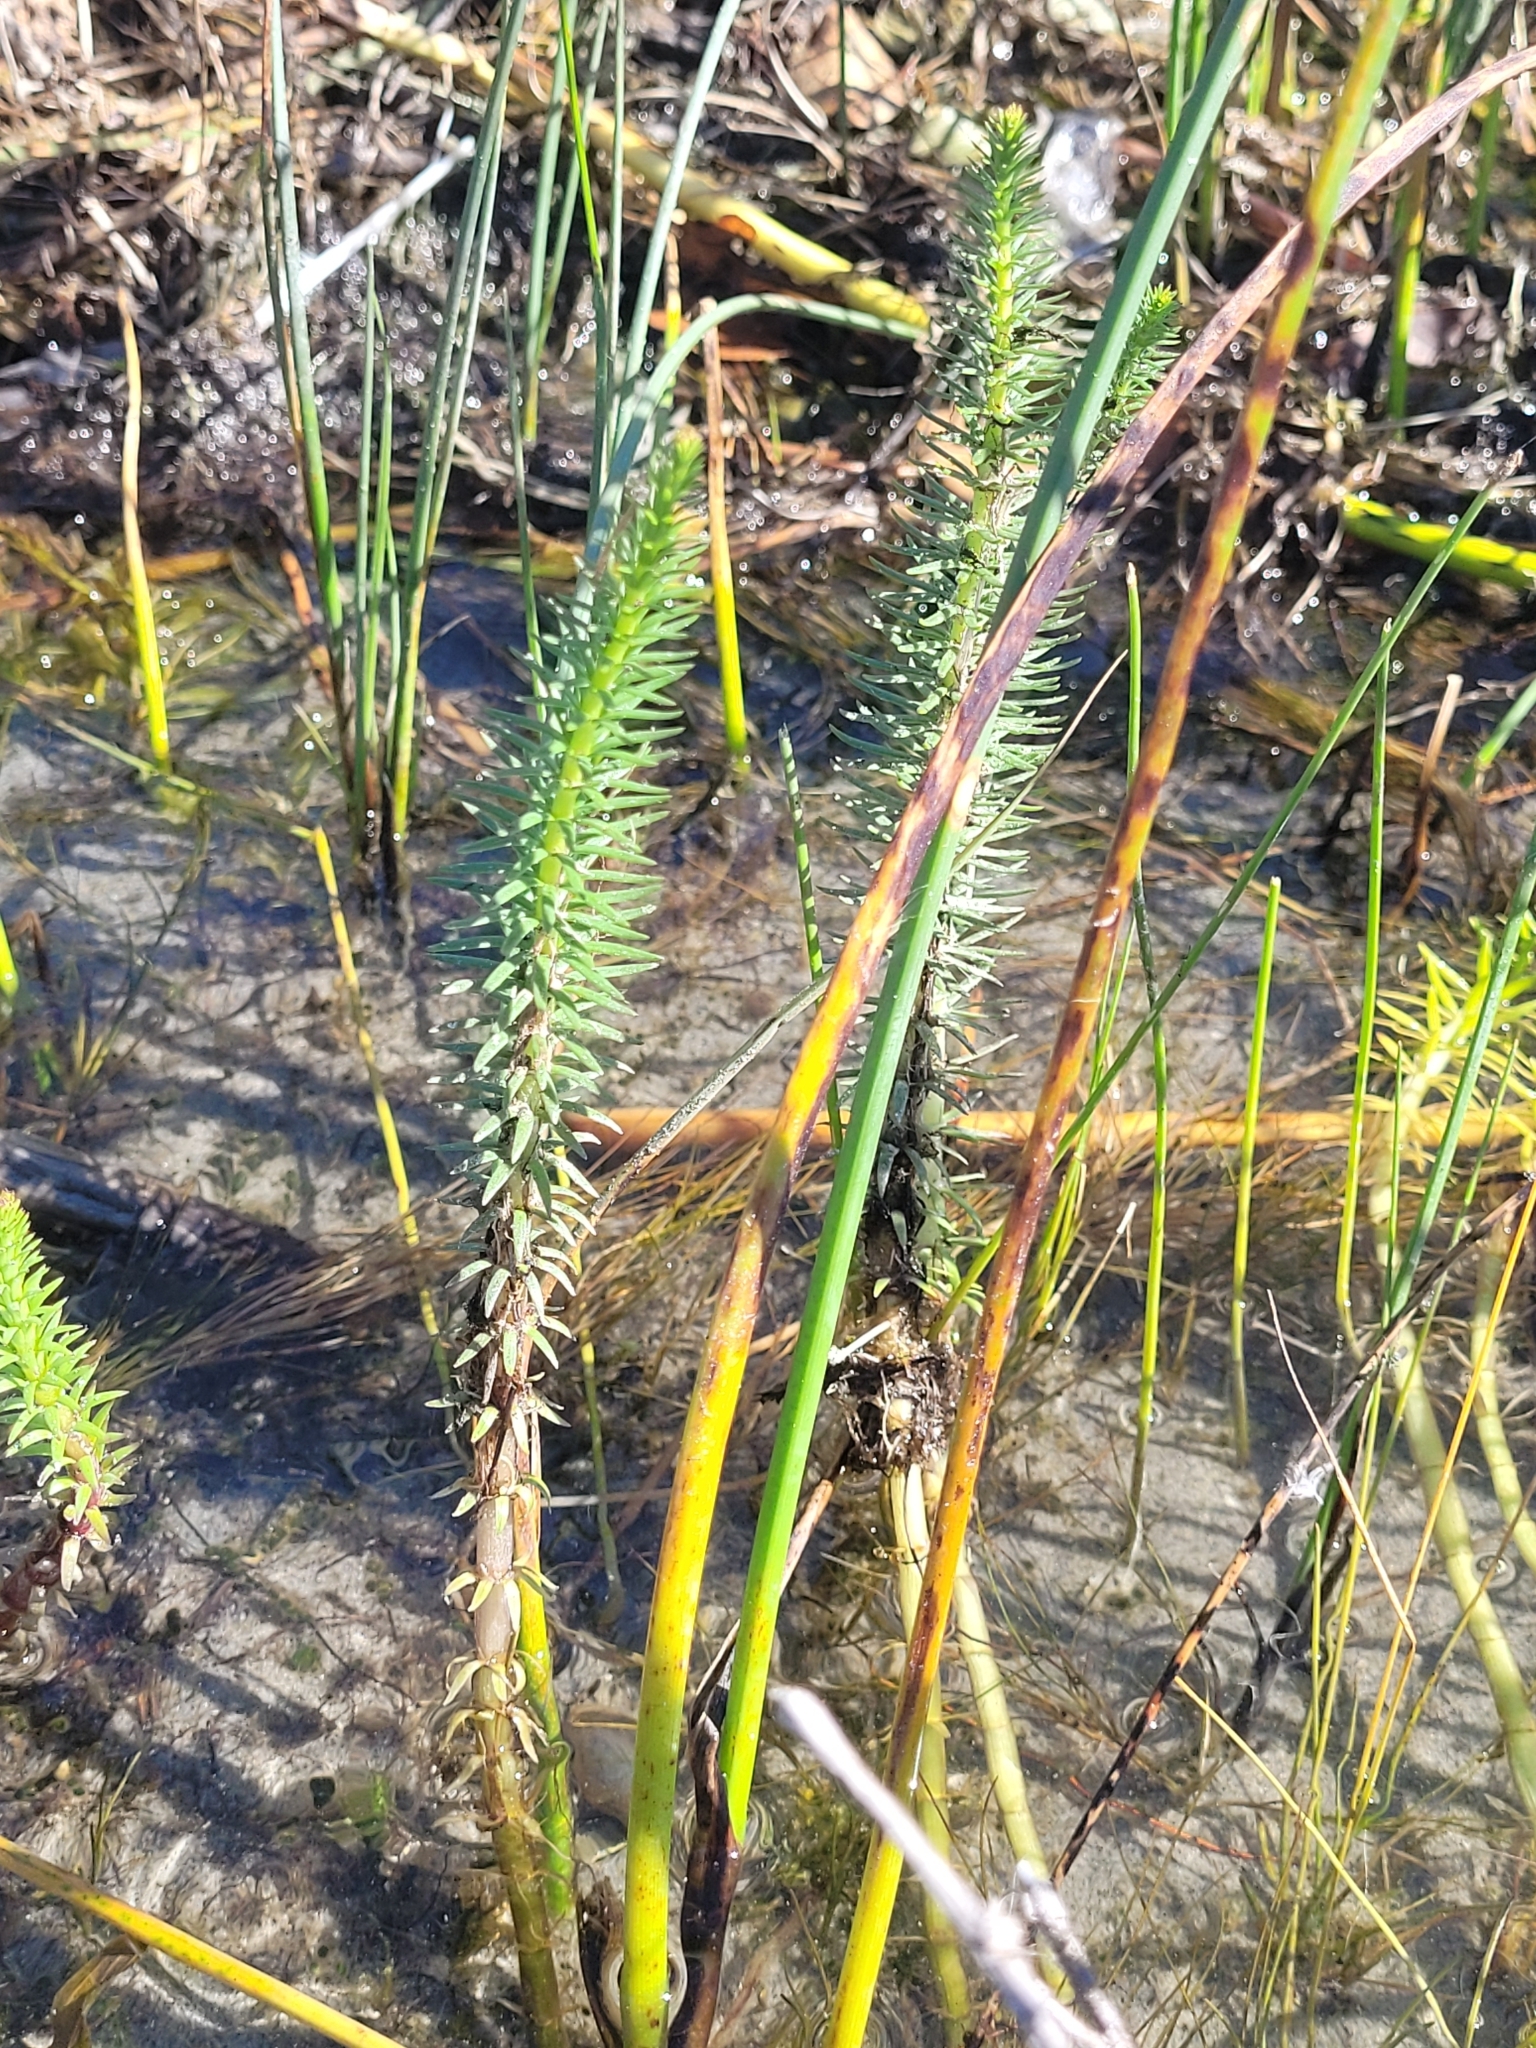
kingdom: Plantae
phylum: Tracheophyta
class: Magnoliopsida
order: Lamiales
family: Plantaginaceae
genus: Hippuris
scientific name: Hippuris vulgaris
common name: Mare's-tail
